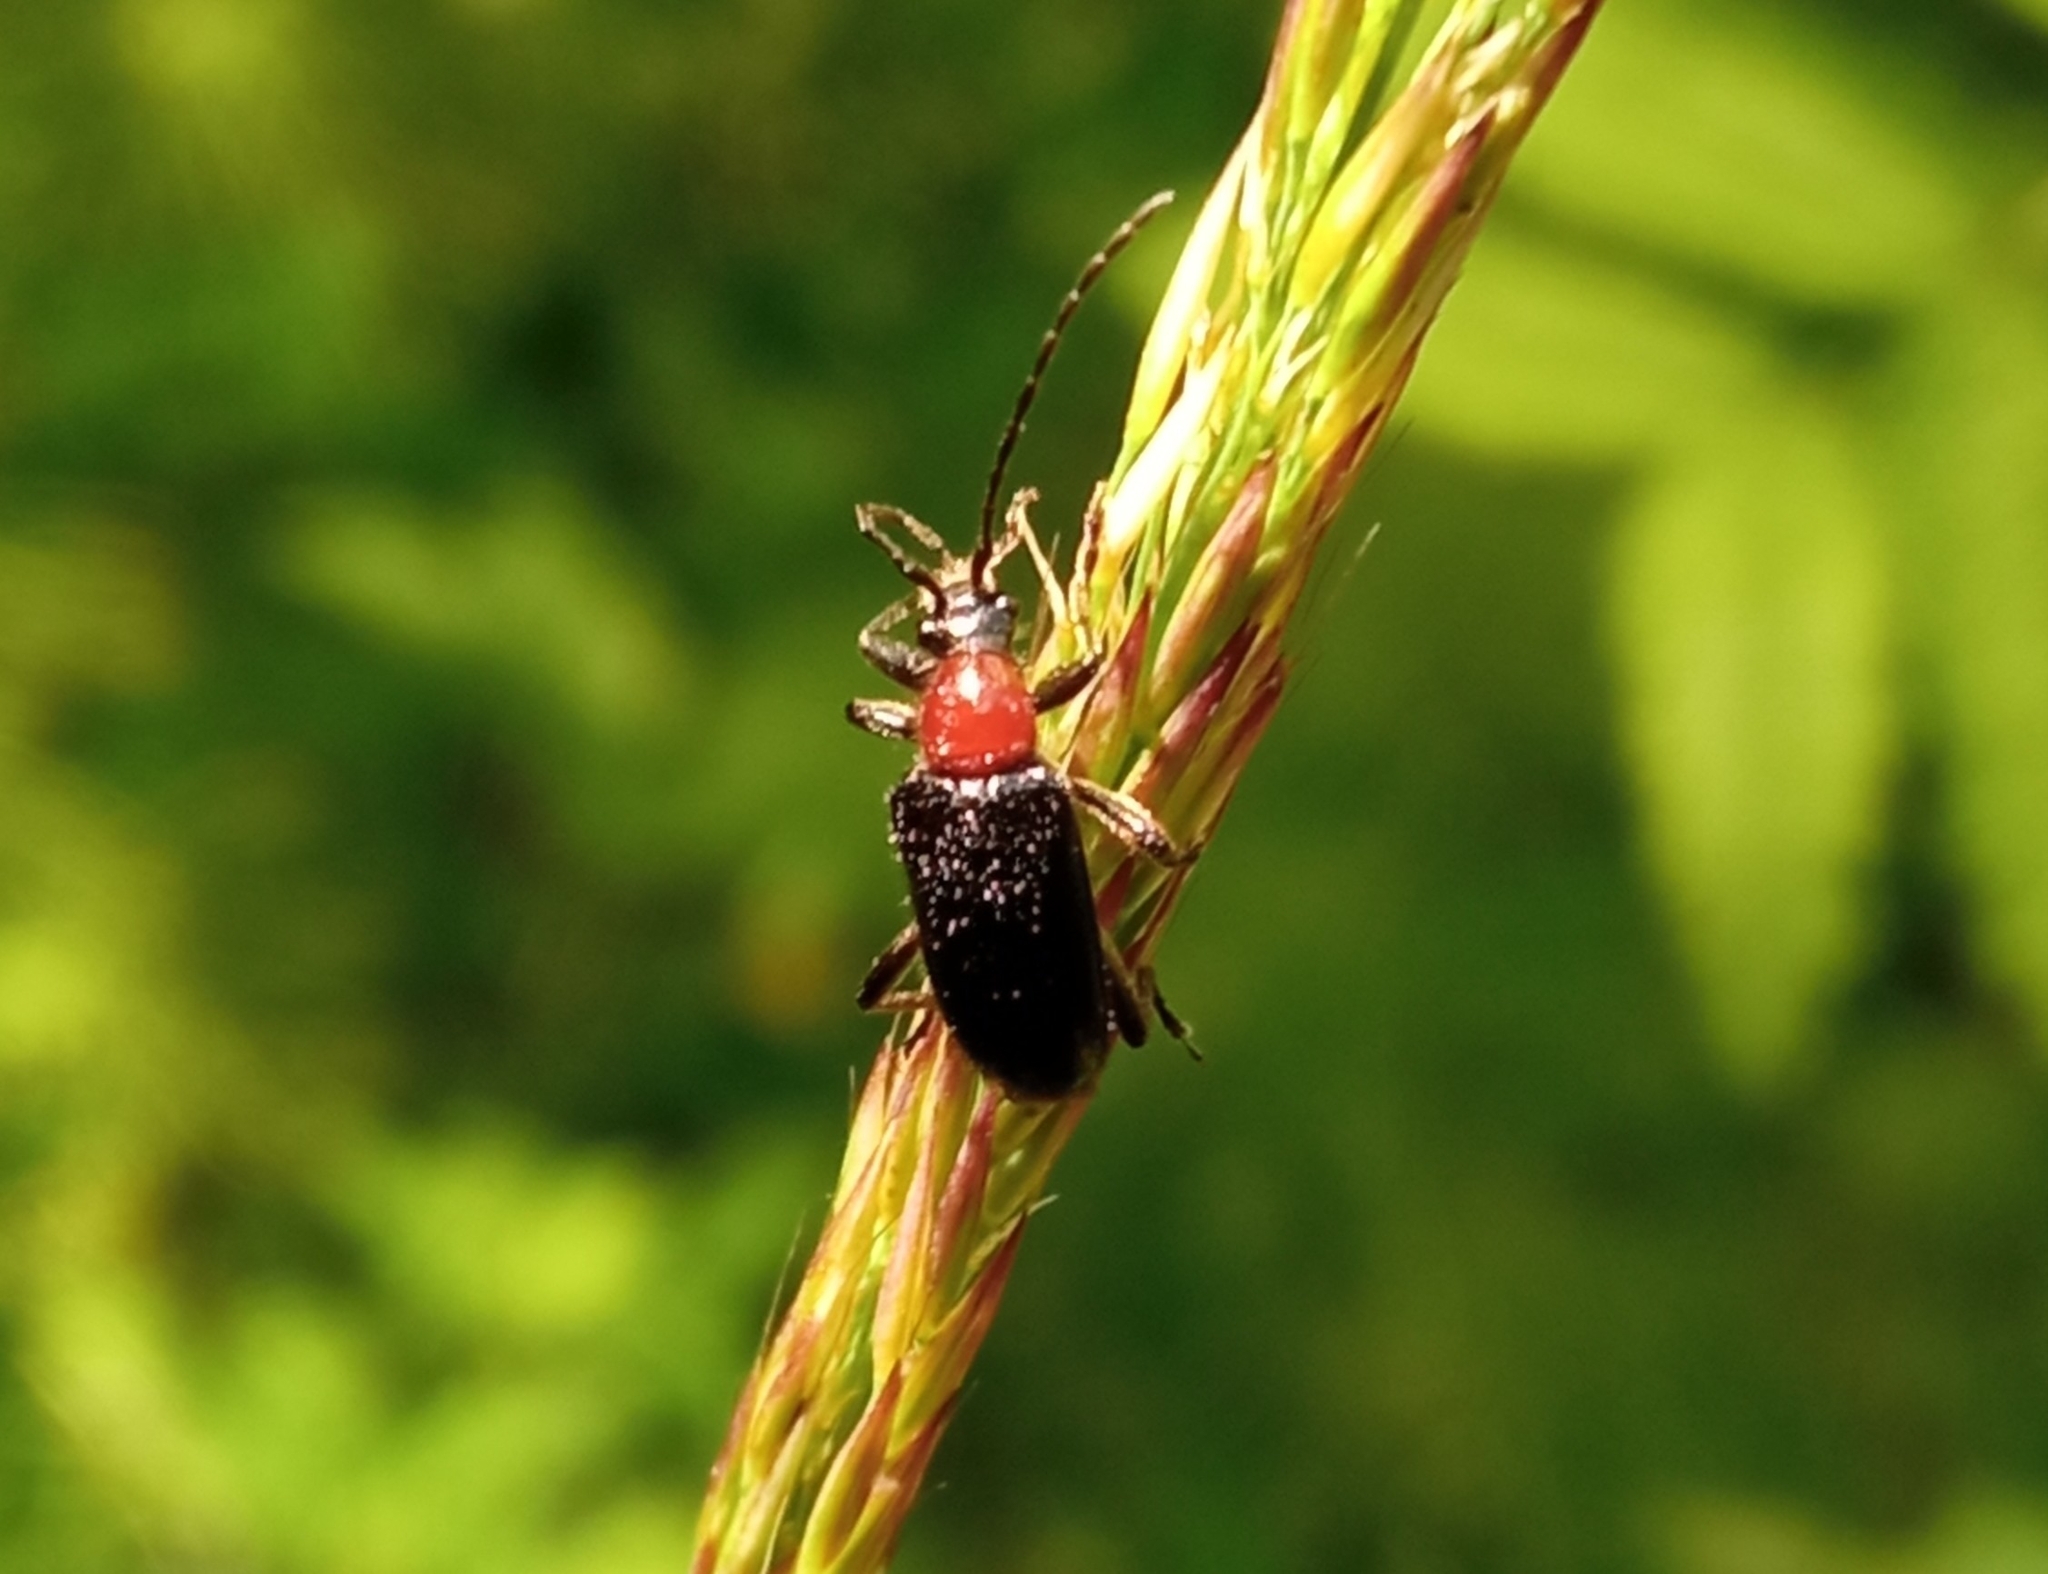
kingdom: Animalia
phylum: Arthropoda
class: Insecta
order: Coleoptera
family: Cerambycidae
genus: Dinoptera
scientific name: Dinoptera collaris
